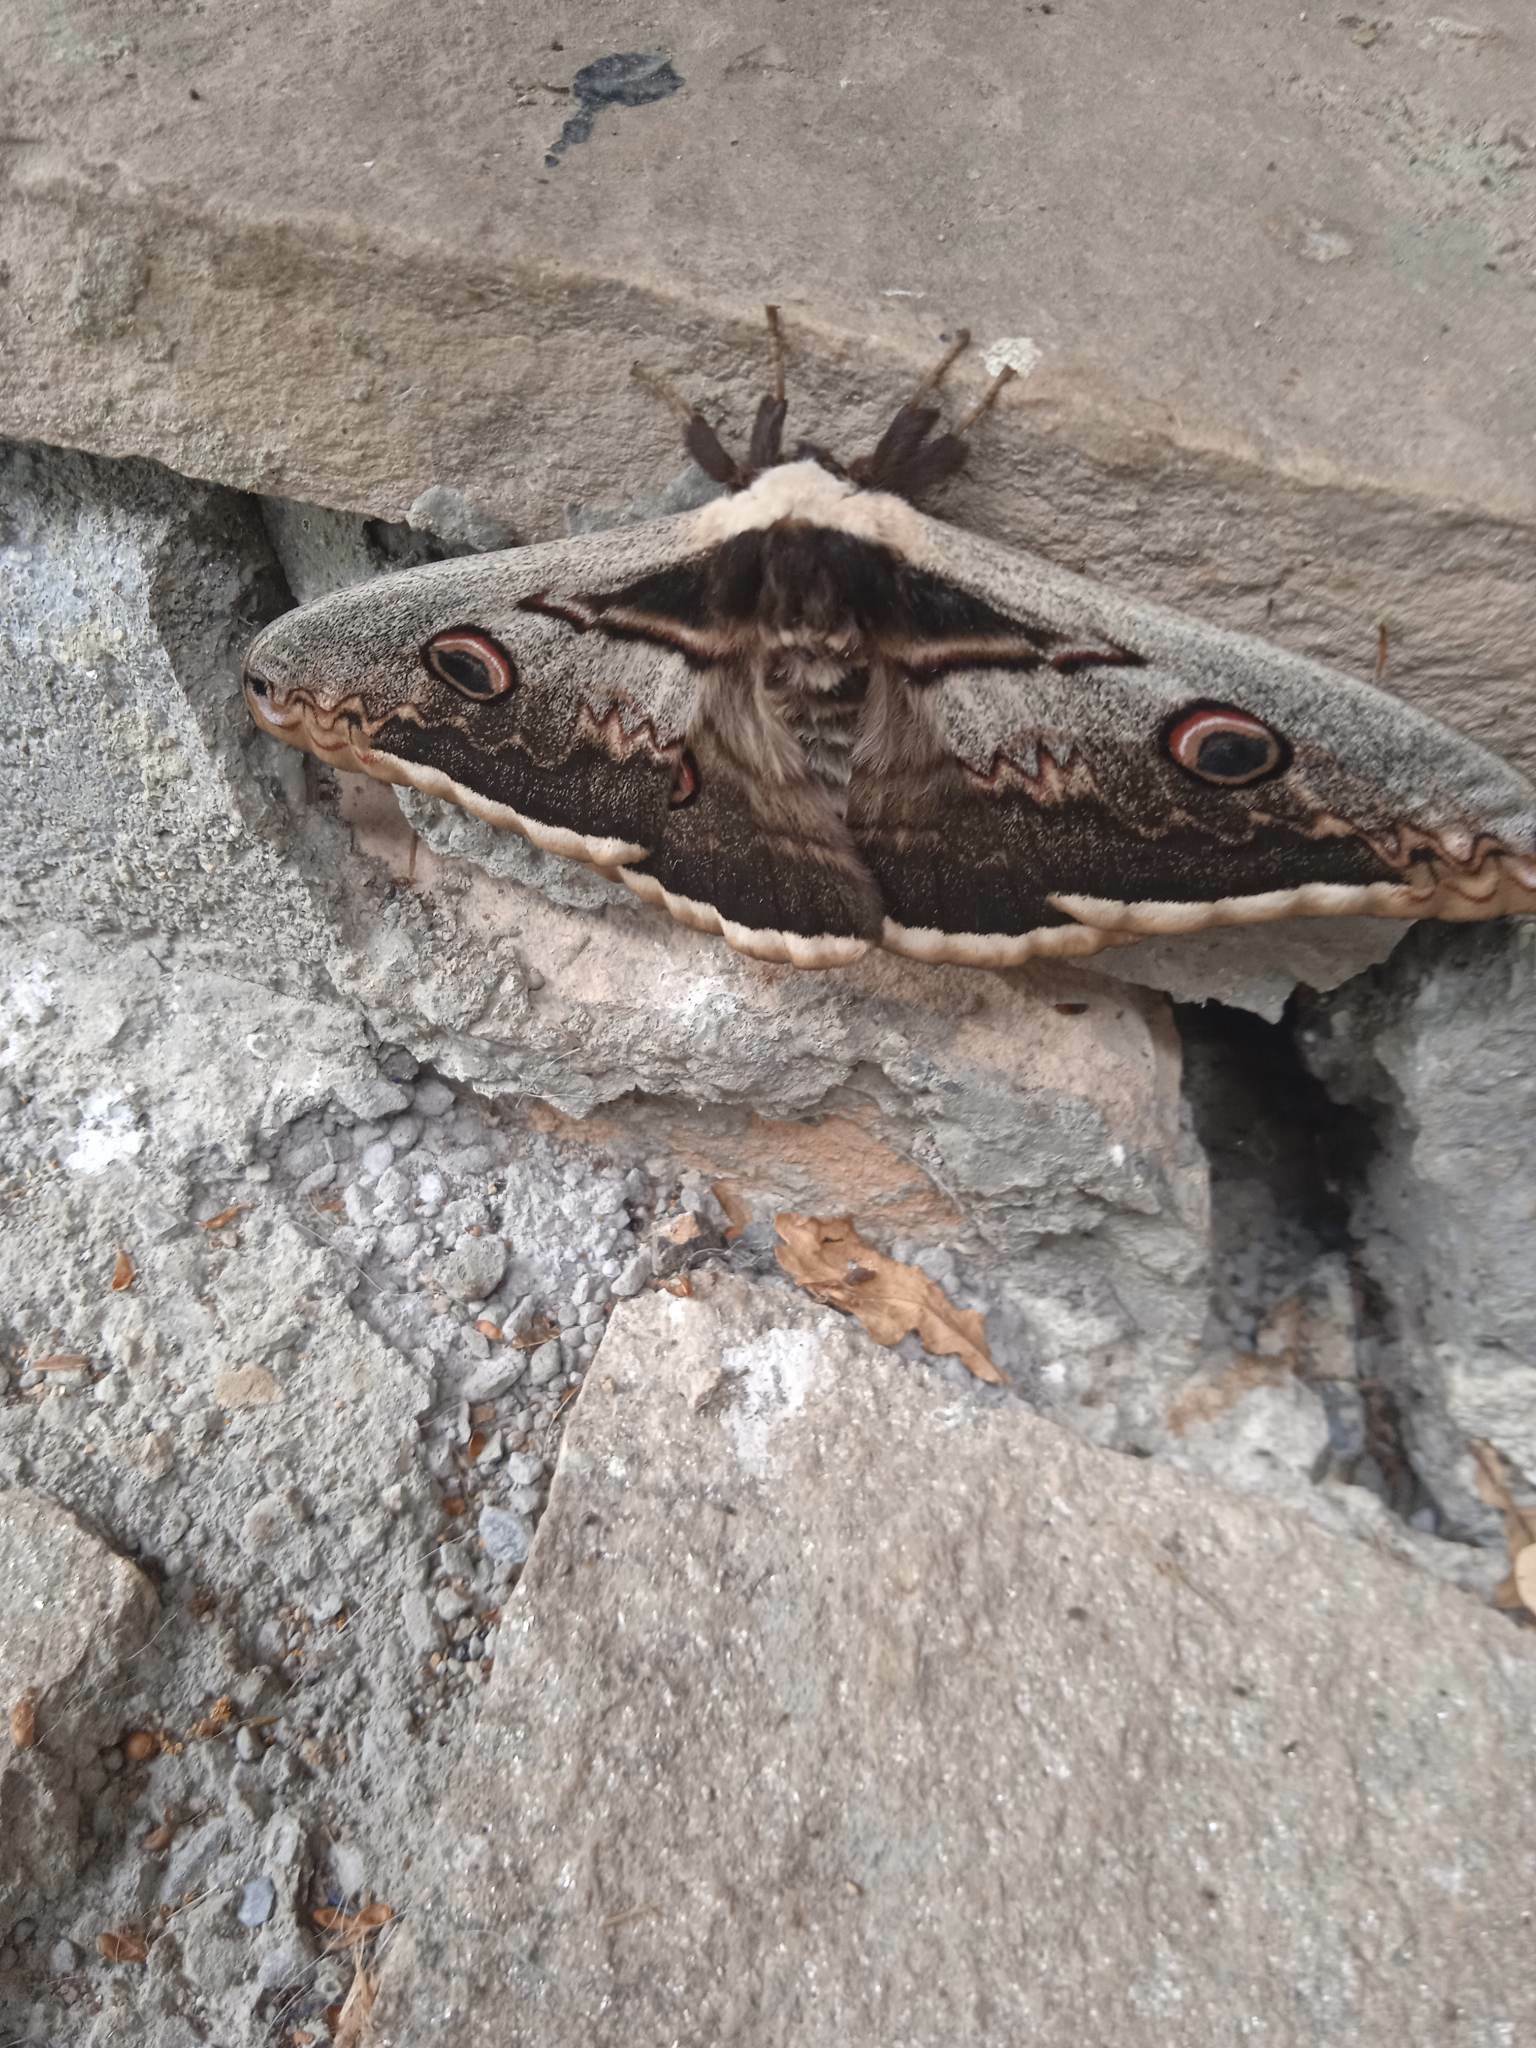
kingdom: Animalia
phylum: Arthropoda
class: Insecta
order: Lepidoptera
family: Saturniidae
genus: Saturnia
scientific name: Saturnia pyri
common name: Great peacock moth
